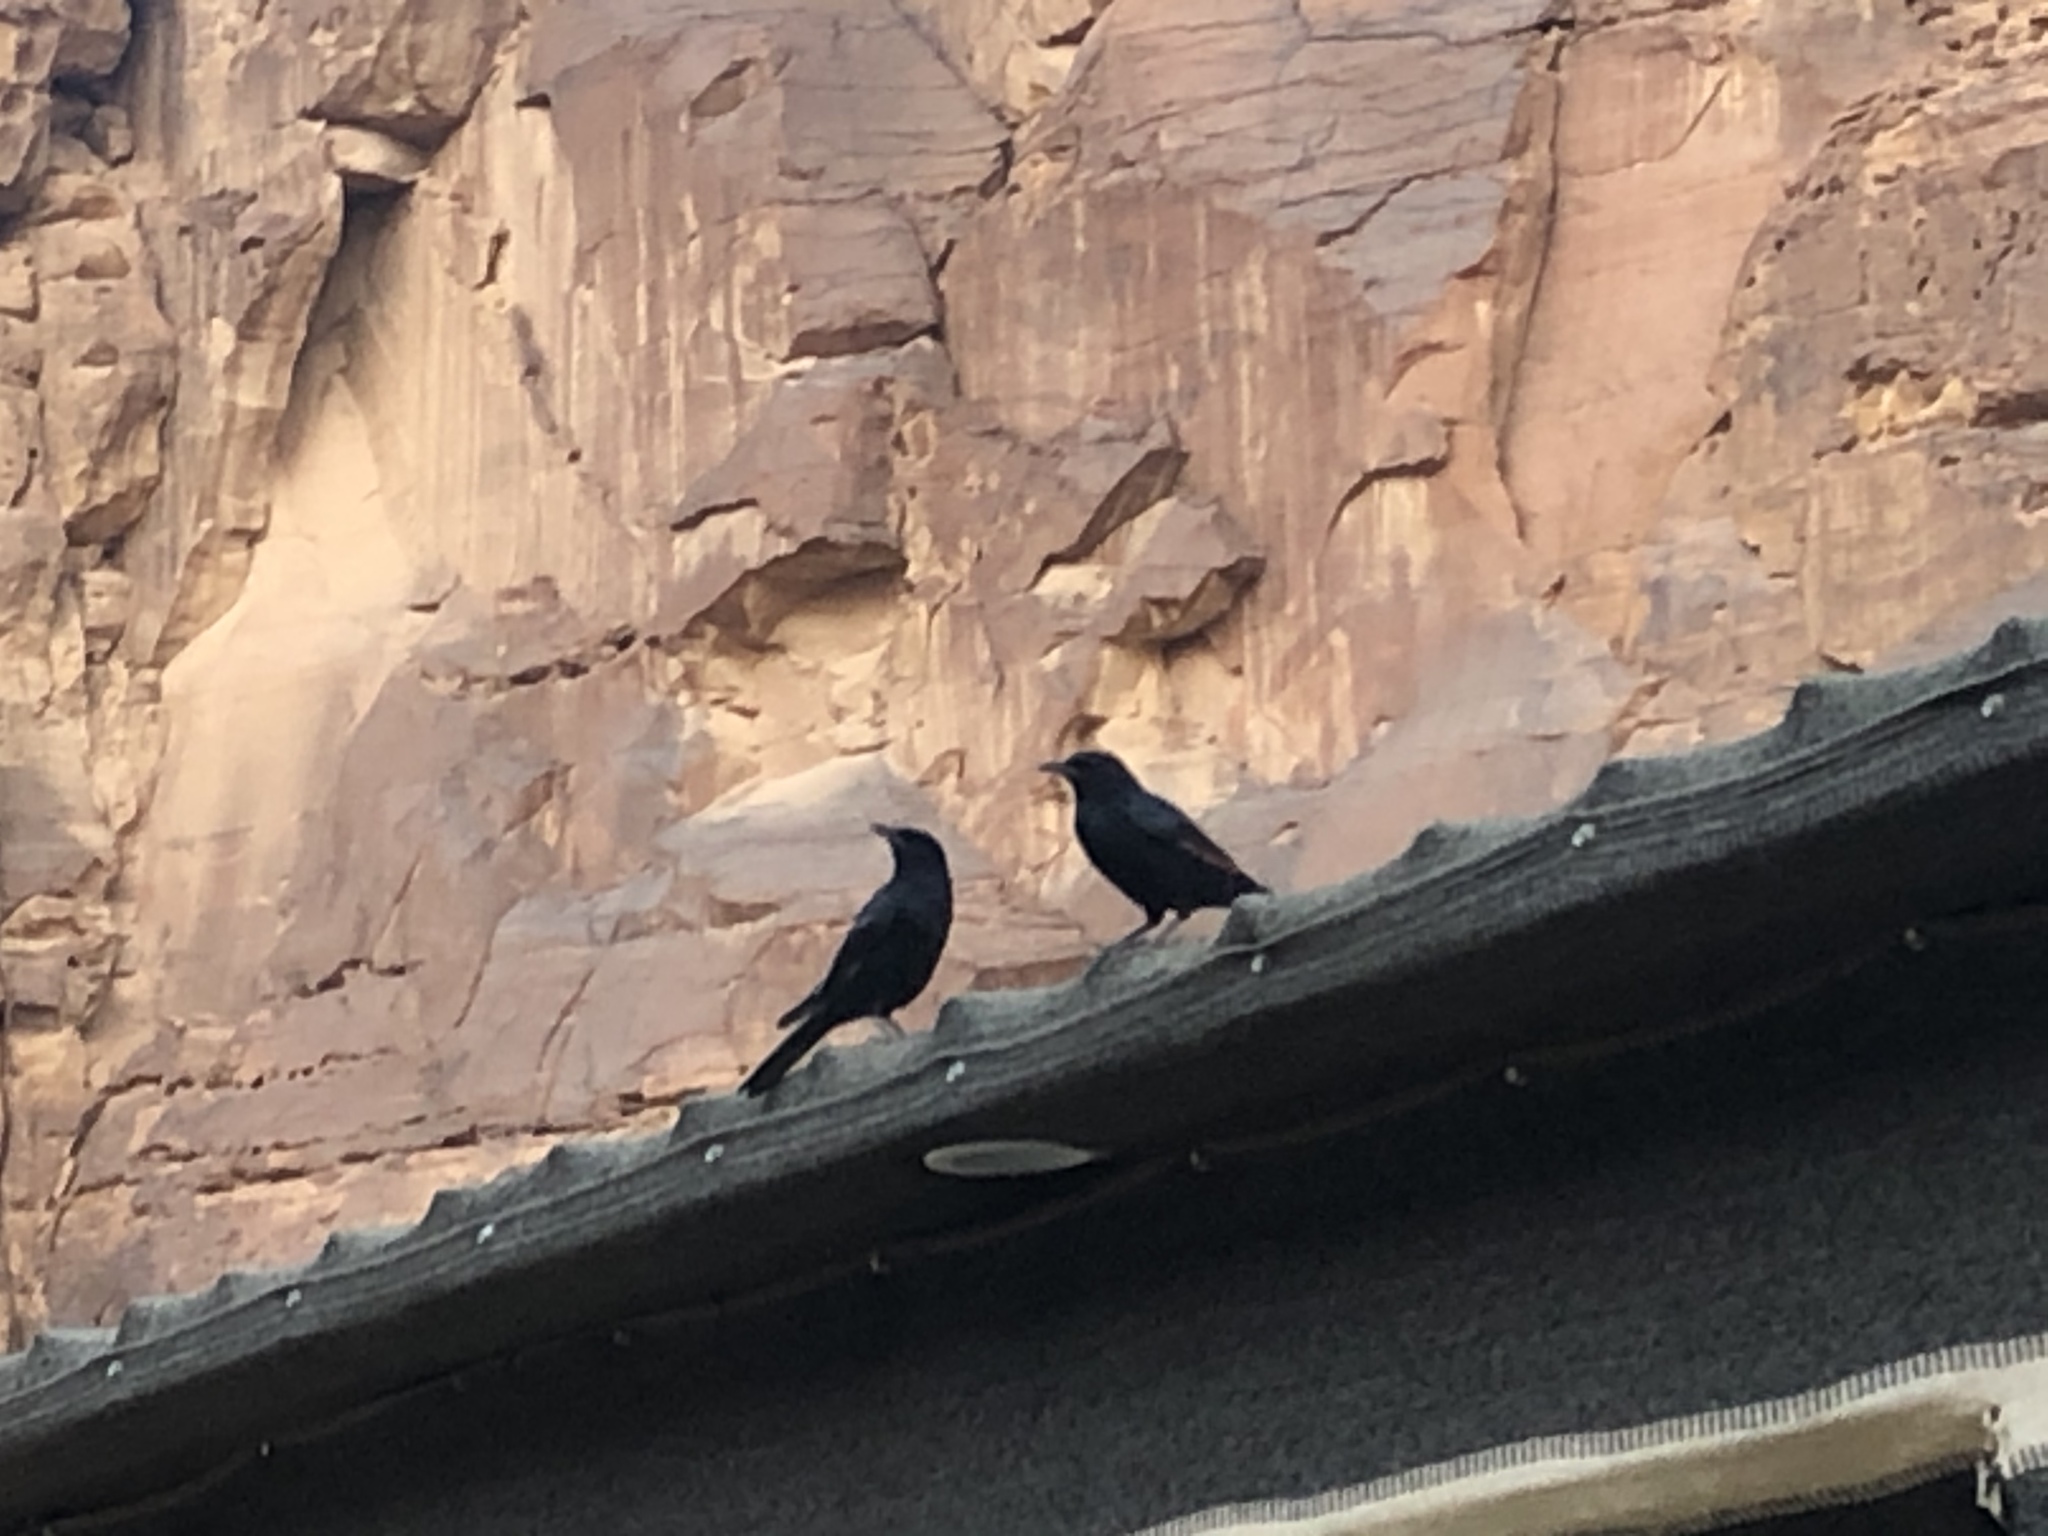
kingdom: Animalia
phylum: Chordata
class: Aves
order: Passeriformes
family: Sturnidae
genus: Onychognathus
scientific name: Onychognathus tristramii
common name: Tristram's starling
